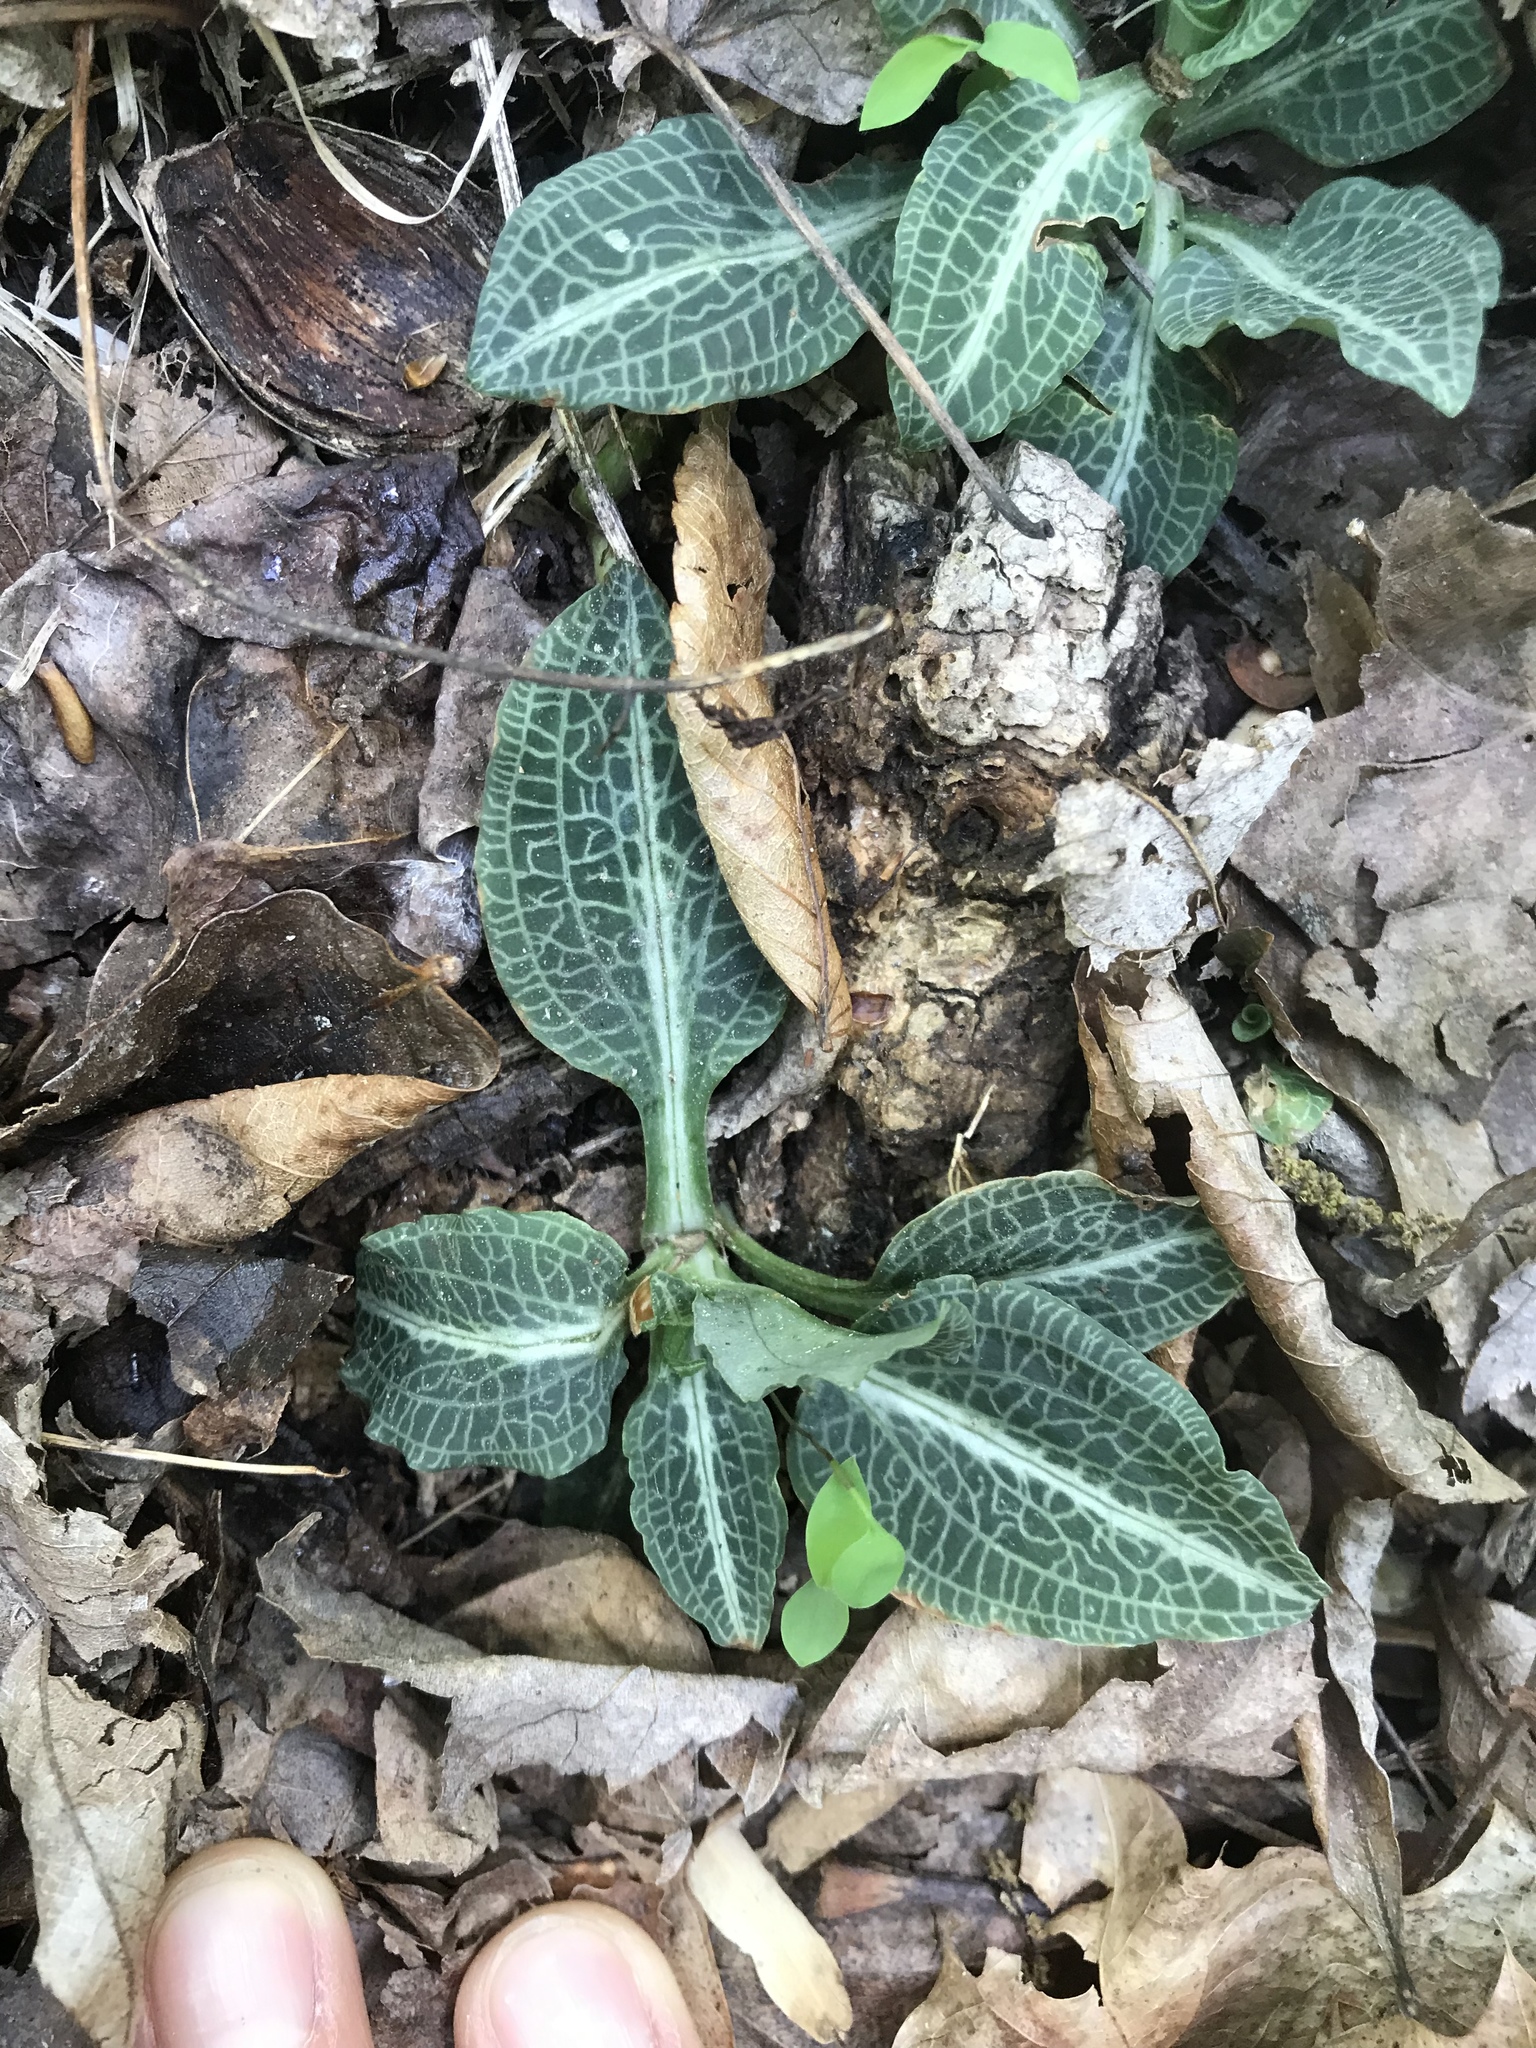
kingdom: Plantae
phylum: Tracheophyta
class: Liliopsida
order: Asparagales
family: Orchidaceae
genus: Goodyera
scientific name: Goodyera pubescens
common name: Downy rattlesnake-plantain
